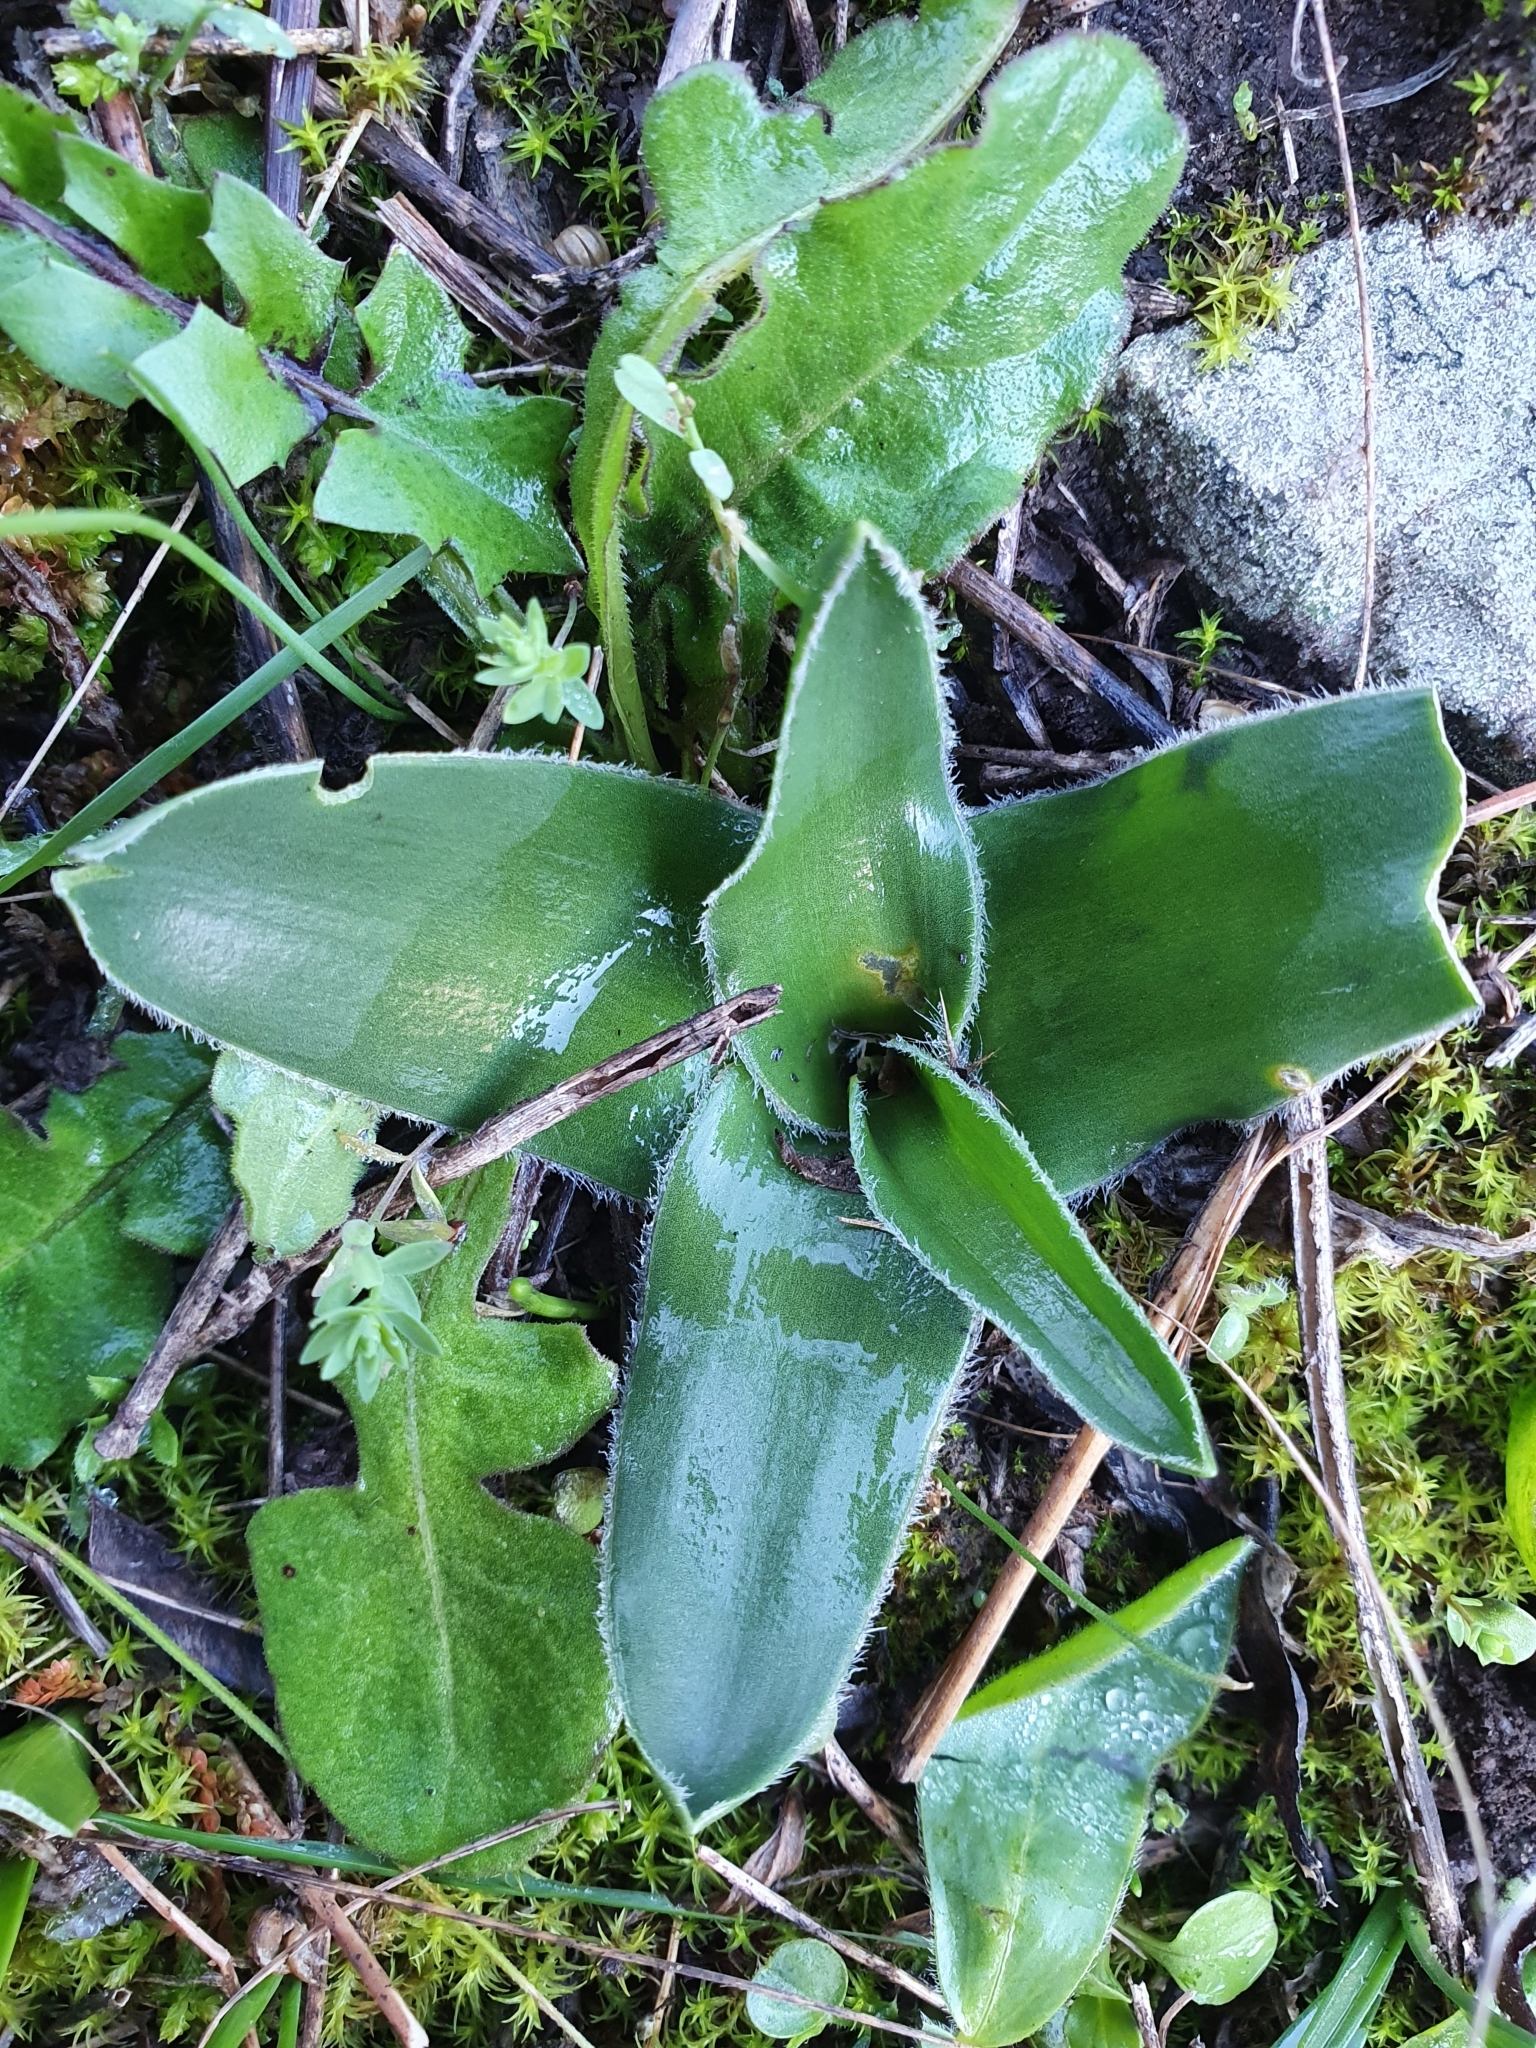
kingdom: Plantae
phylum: Tracheophyta
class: Liliopsida
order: Asparagales
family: Asparagaceae
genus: Scilla
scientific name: Scilla peruviana
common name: Portuguese squill
